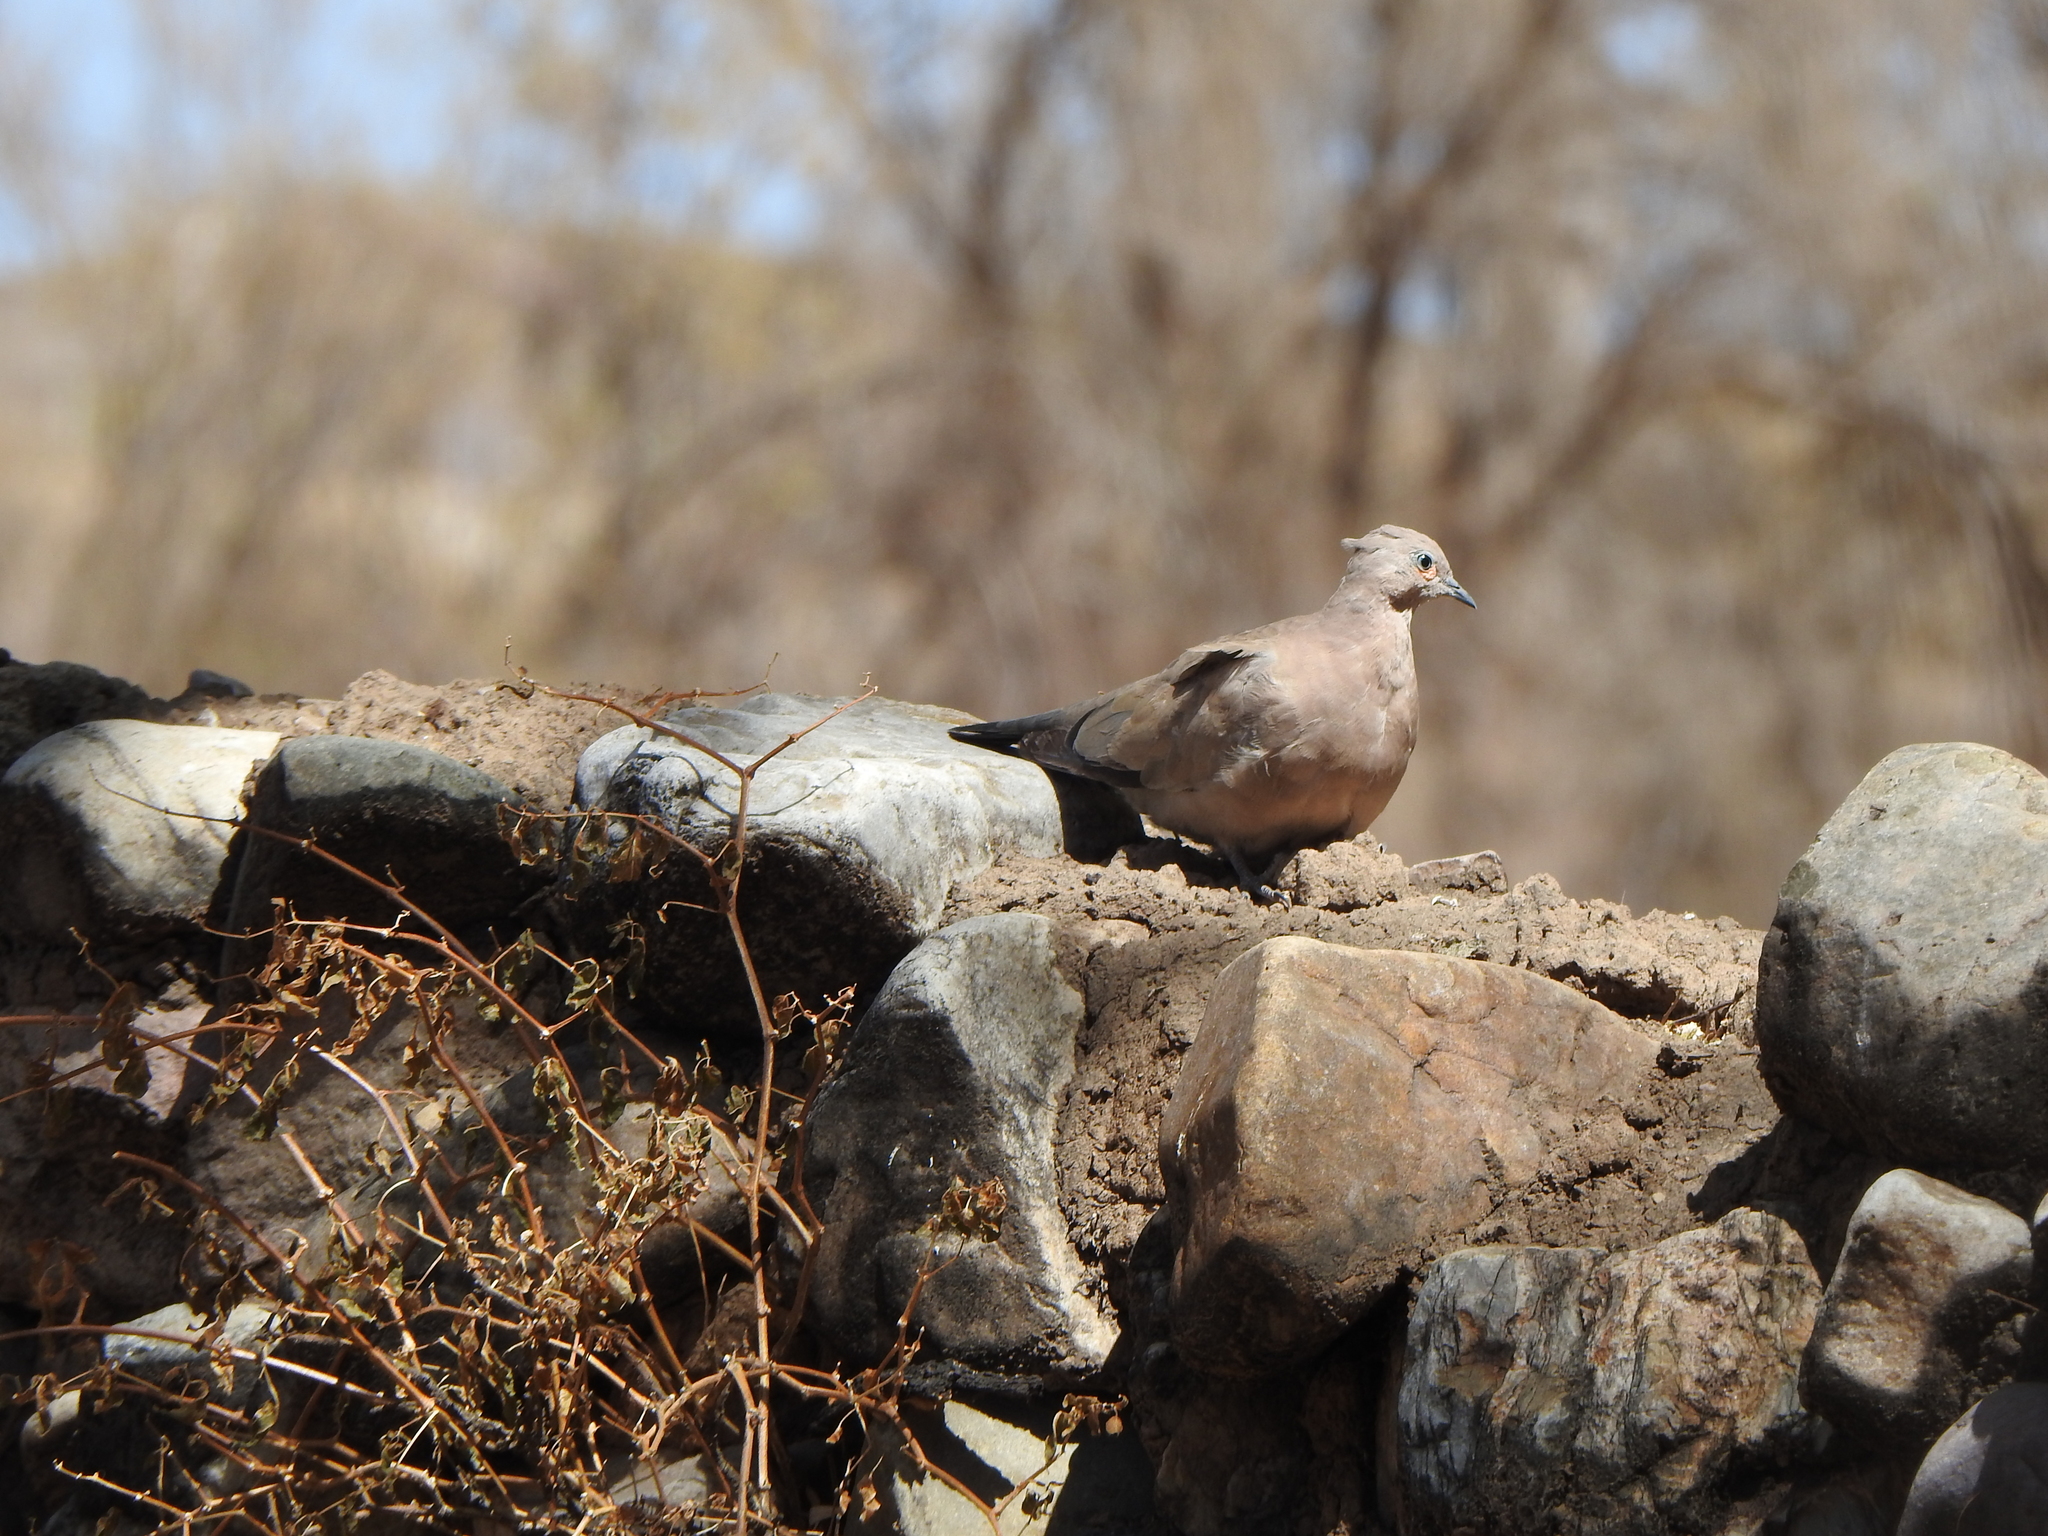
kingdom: Animalia
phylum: Chordata
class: Aves
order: Columbiformes
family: Columbidae
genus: Metriopelia
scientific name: Metriopelia melanoptera
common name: Black-winged ground dove
